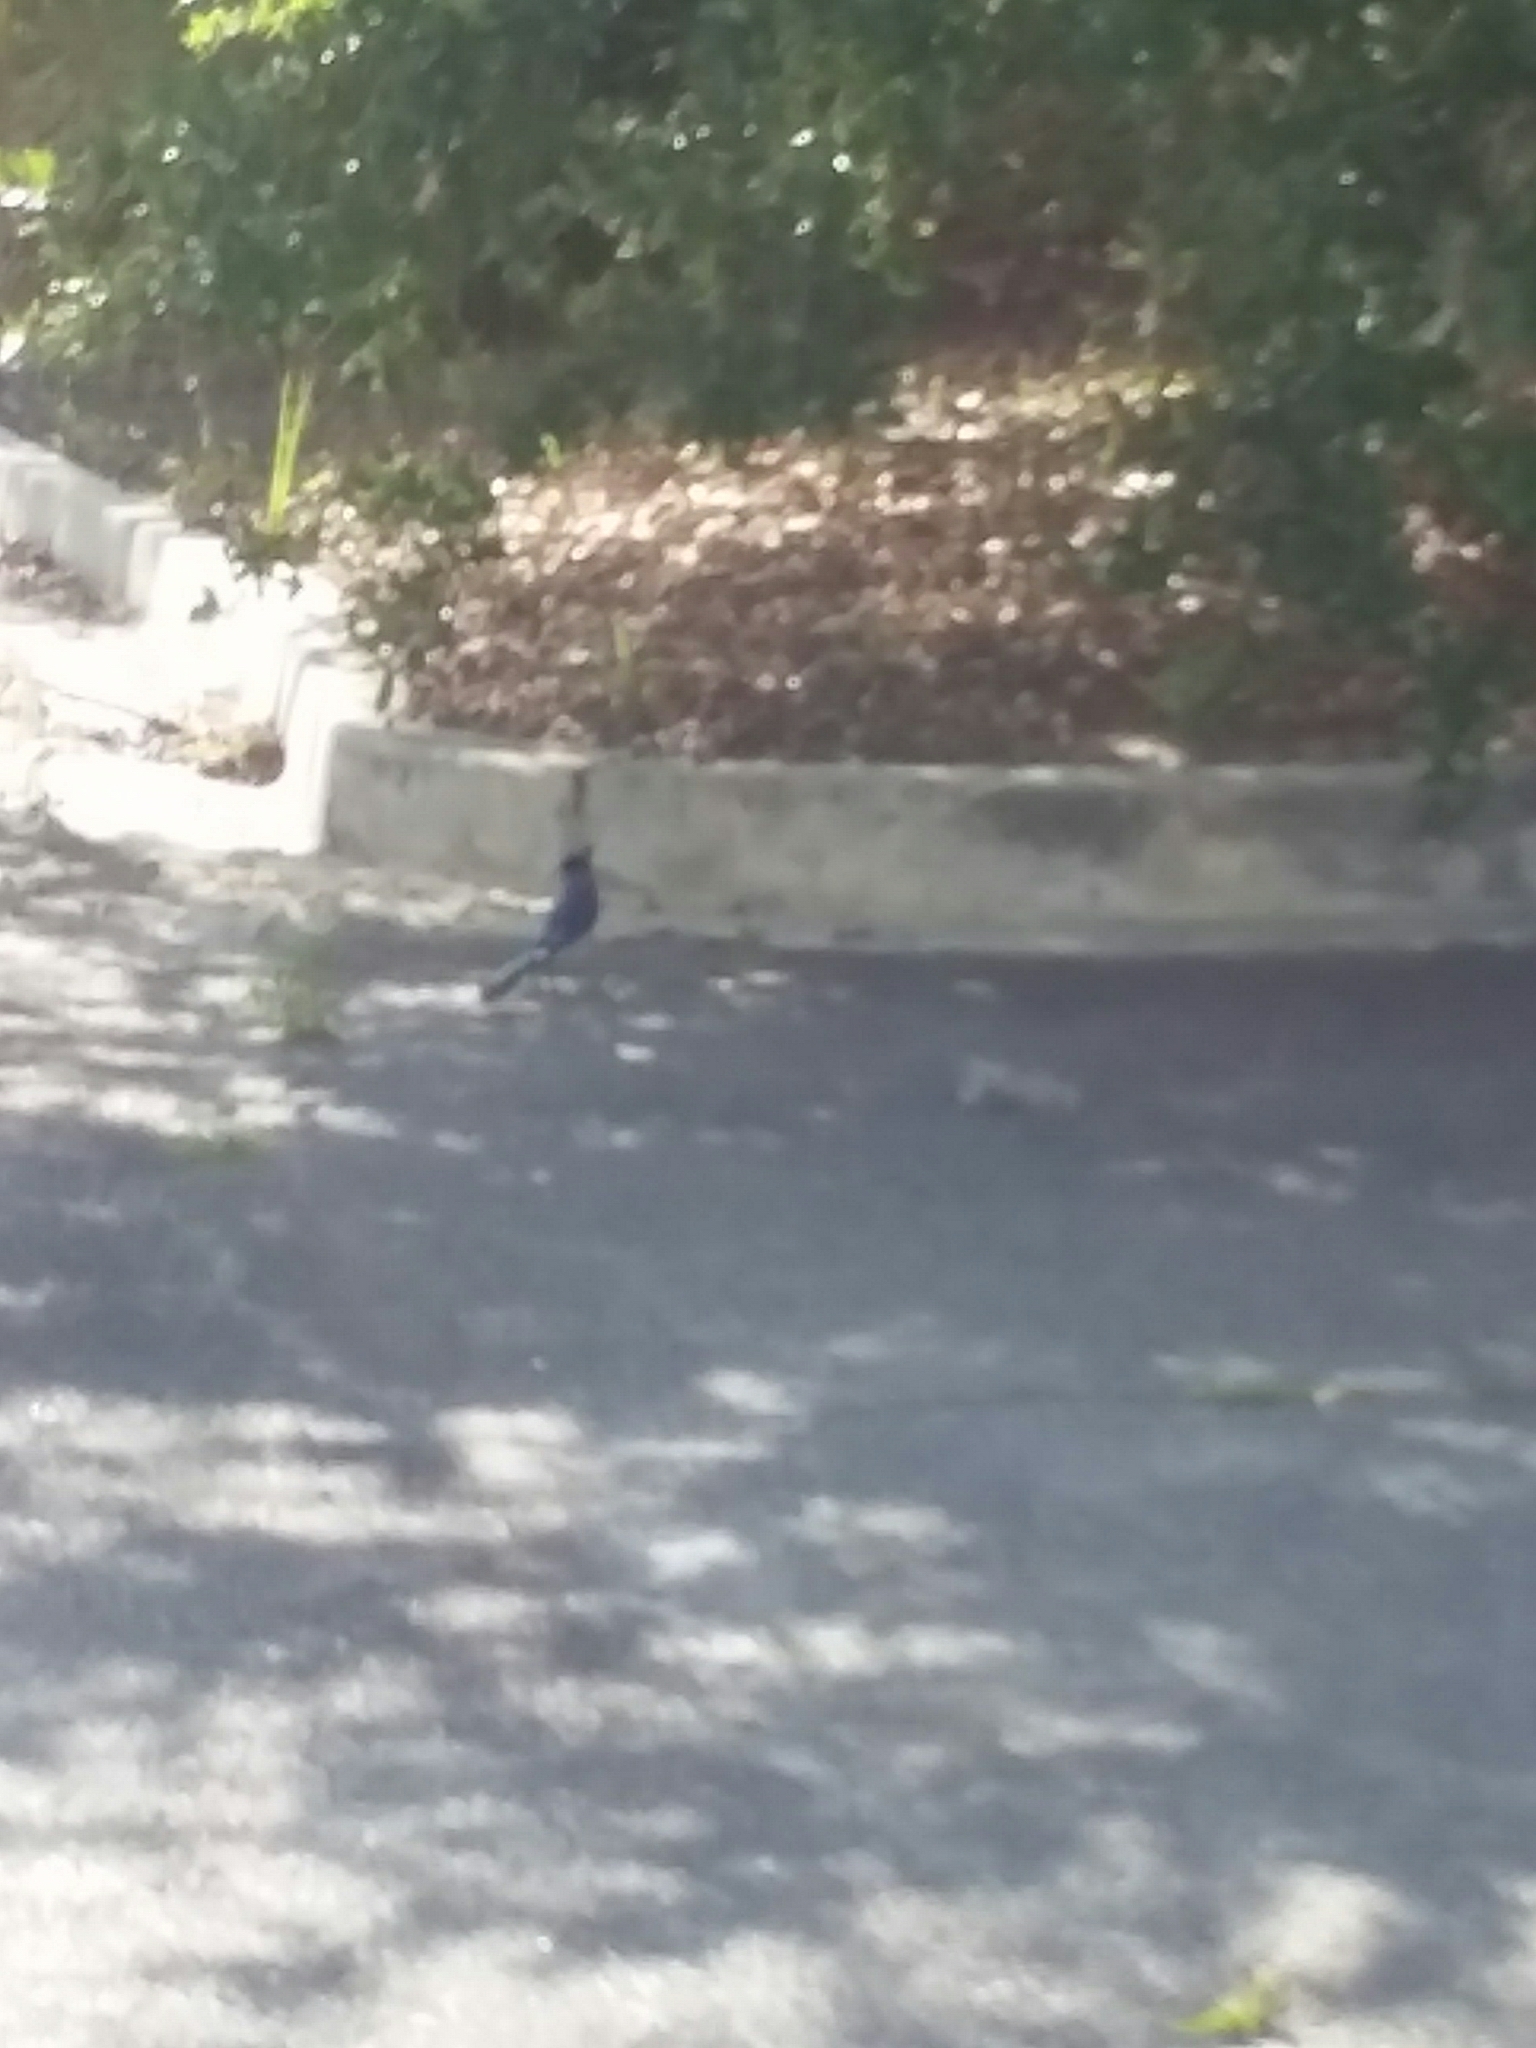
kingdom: Animalia
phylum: Chordata
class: Aves
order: Passeriformes
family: Corvidae
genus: Cyanocitta
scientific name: Cyanocitta cristata
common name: Blue jay
